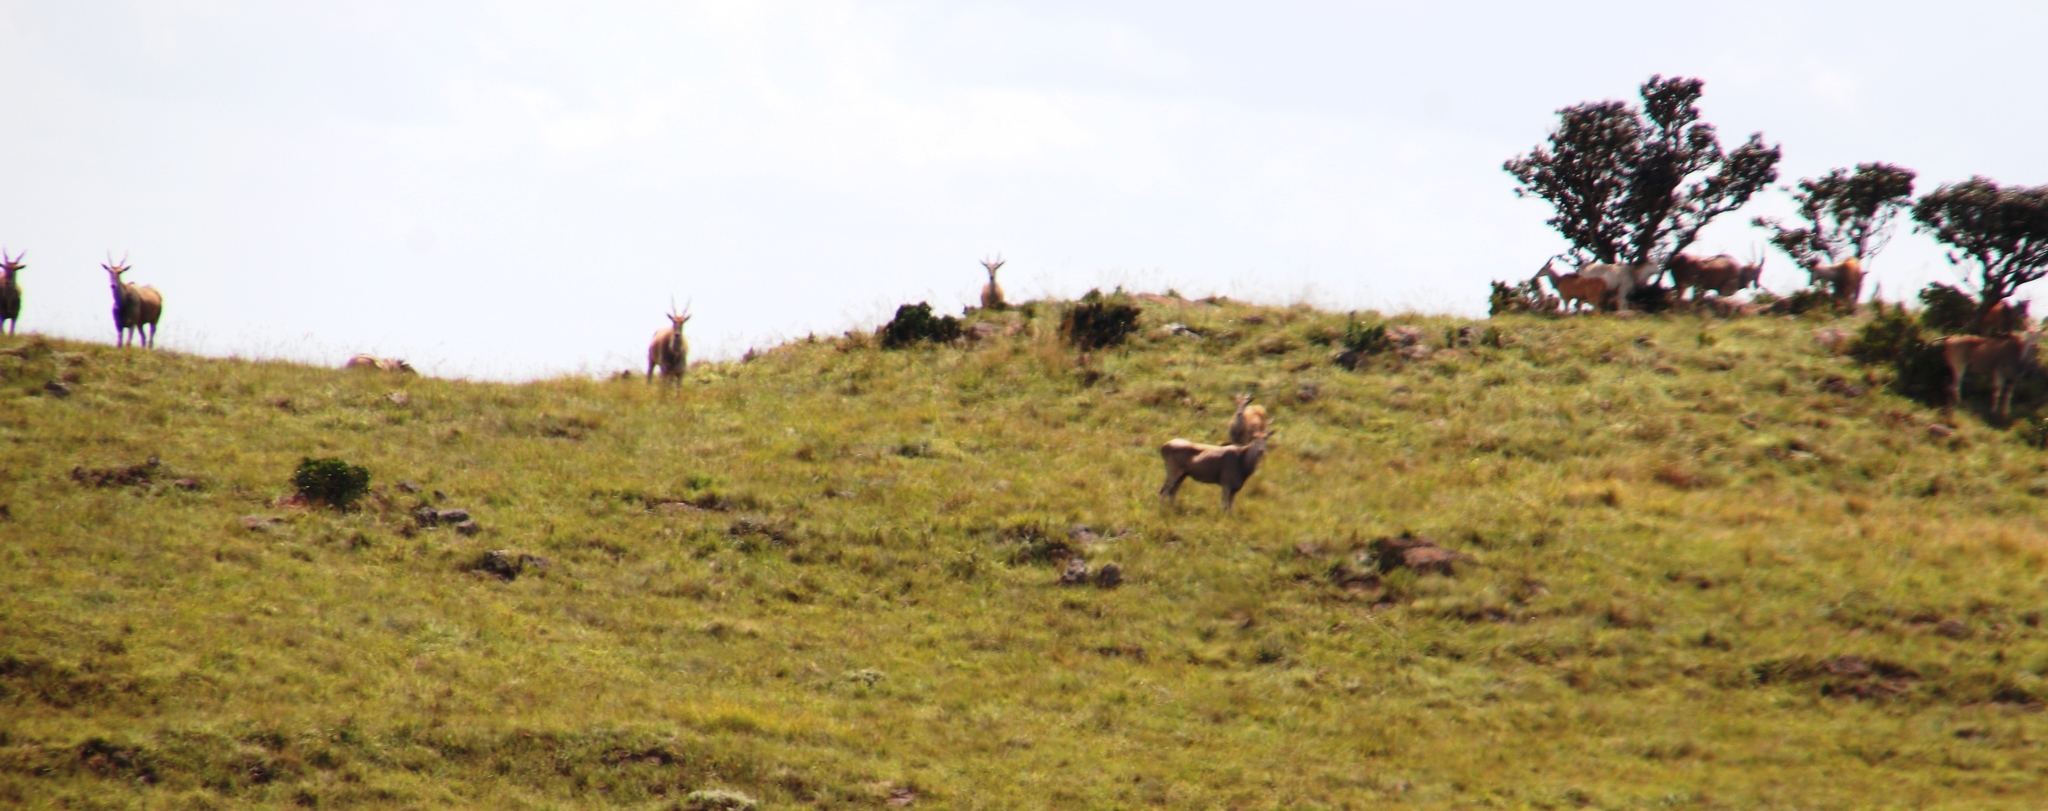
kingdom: Animalia
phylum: Chordata
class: Mammalia
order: Artiodactyla
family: Bovidae
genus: Taurotragus
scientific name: Taurotragus oryx
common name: Common eland
